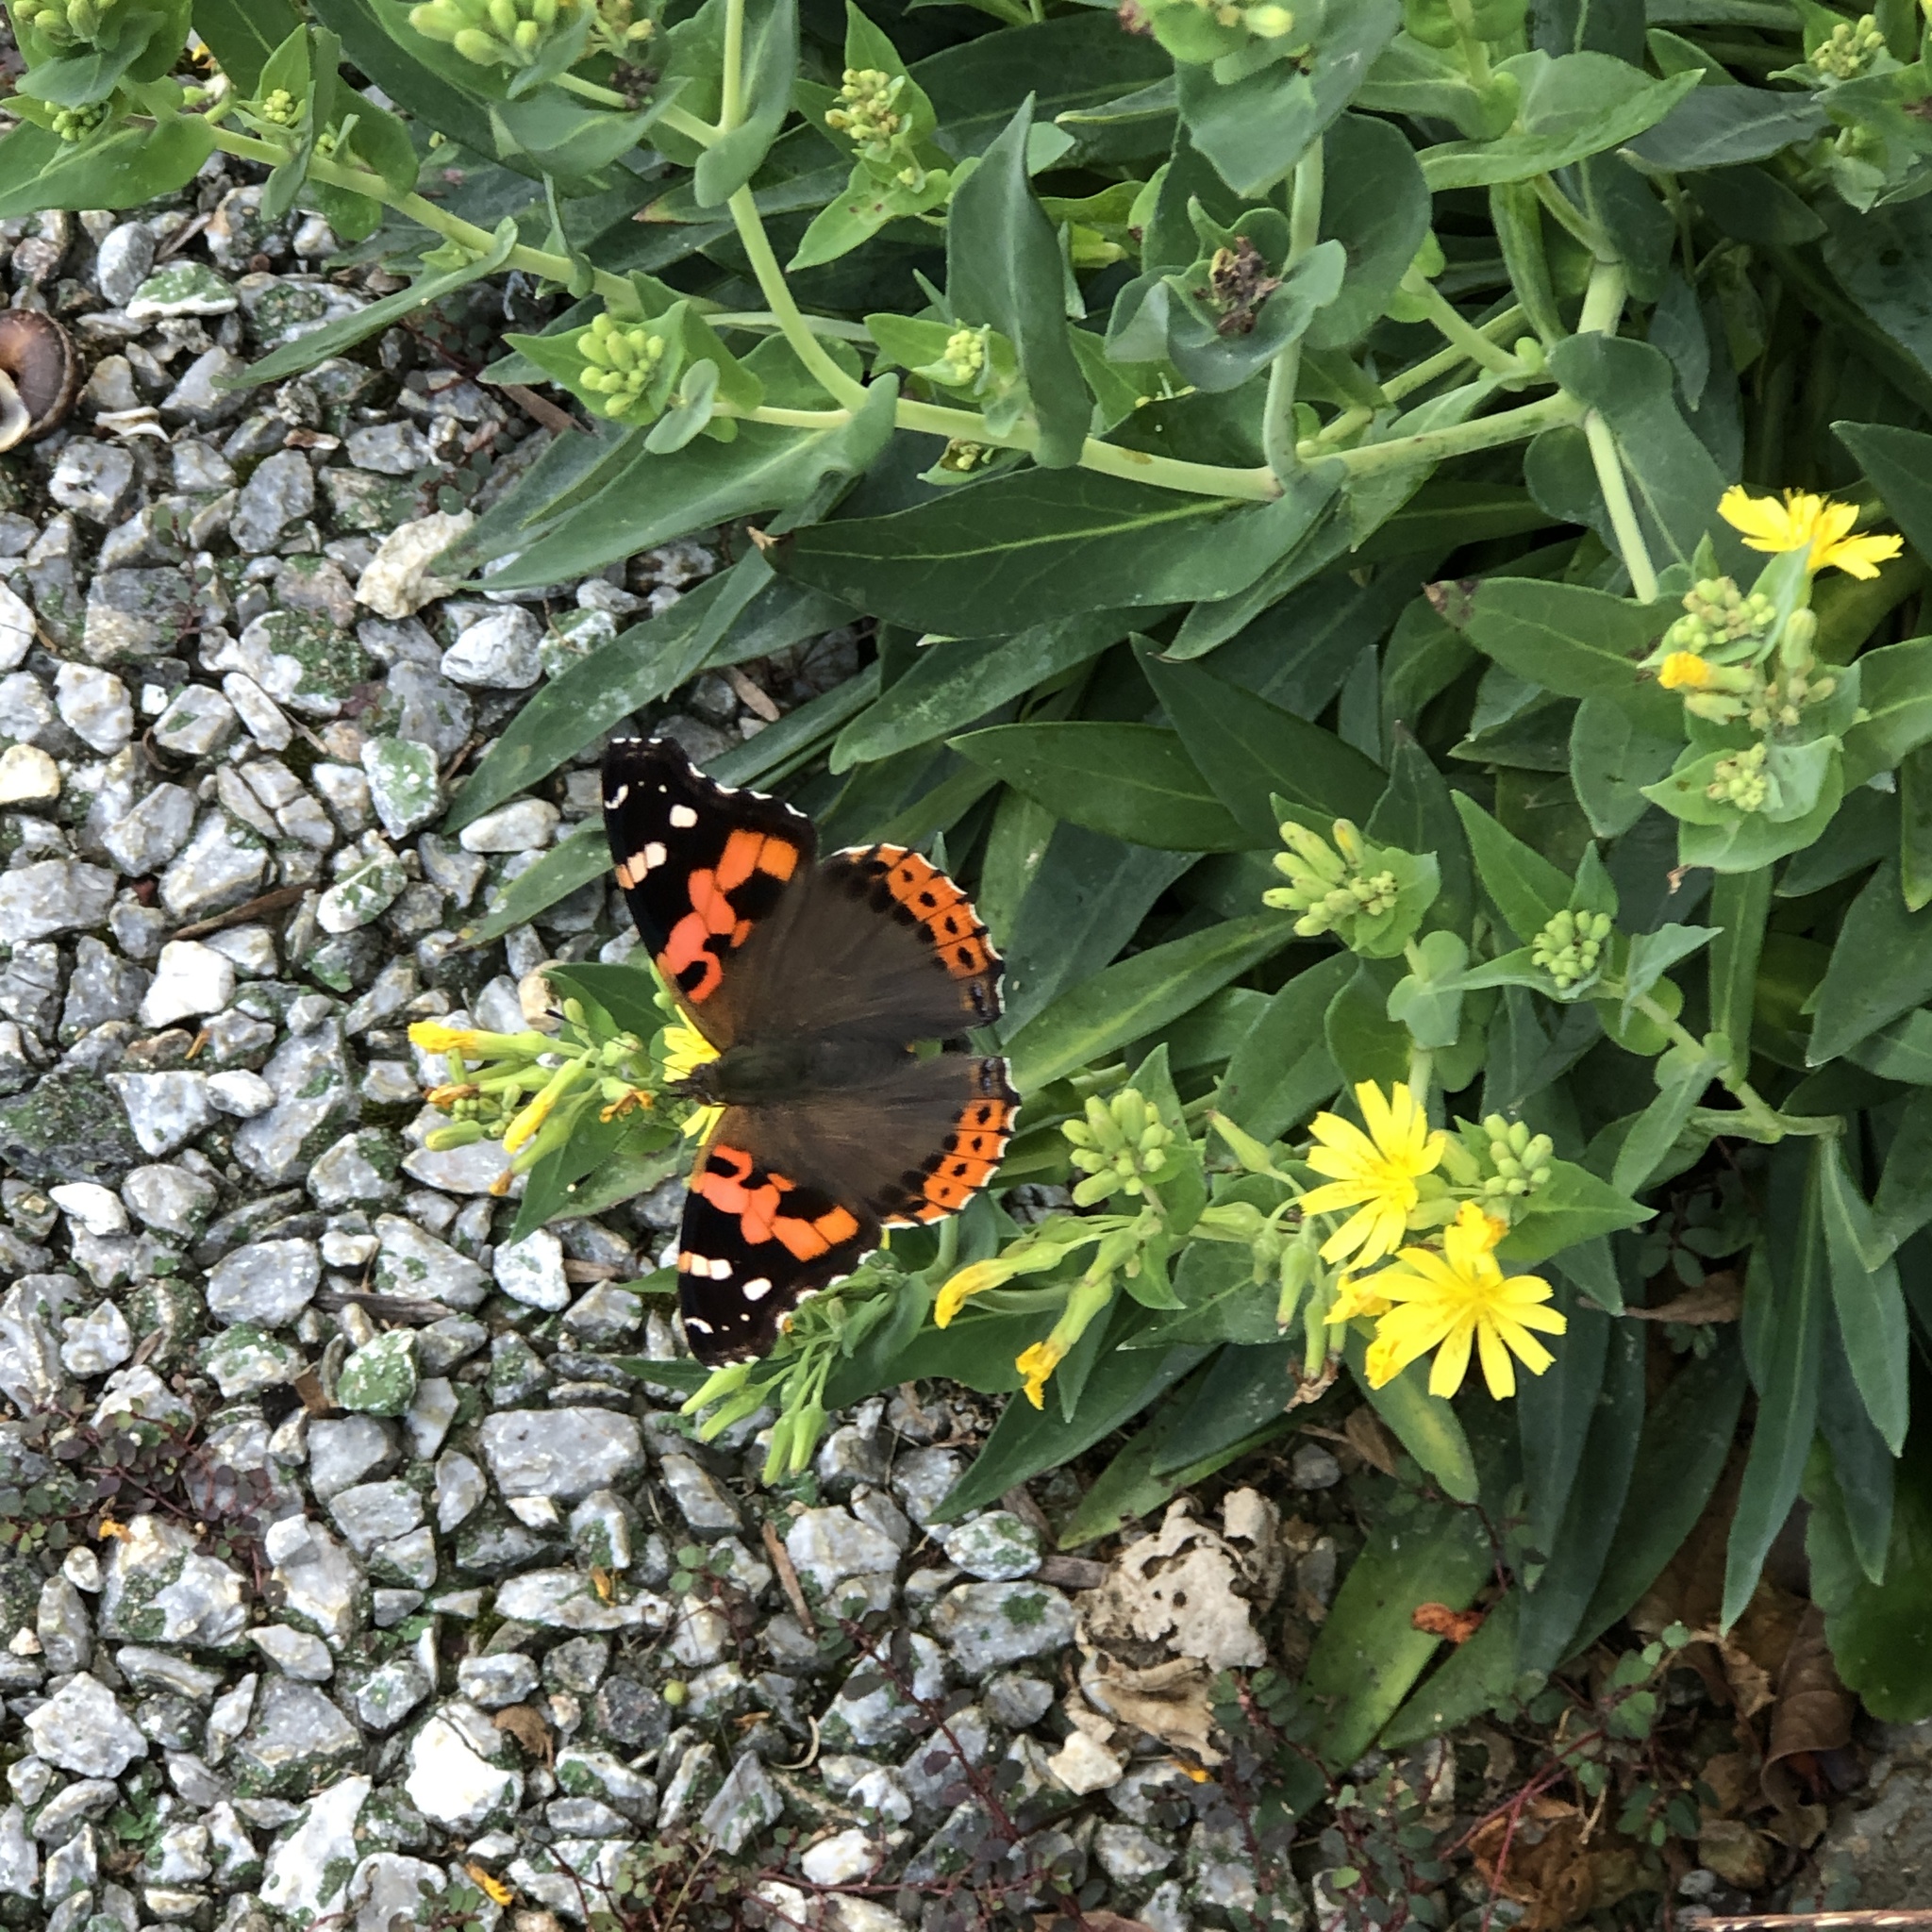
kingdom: Animalia
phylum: Arthropoda
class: Insecta
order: Lepidoptera
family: Nymphalidae
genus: Vanessa
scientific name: Vanessa indica
